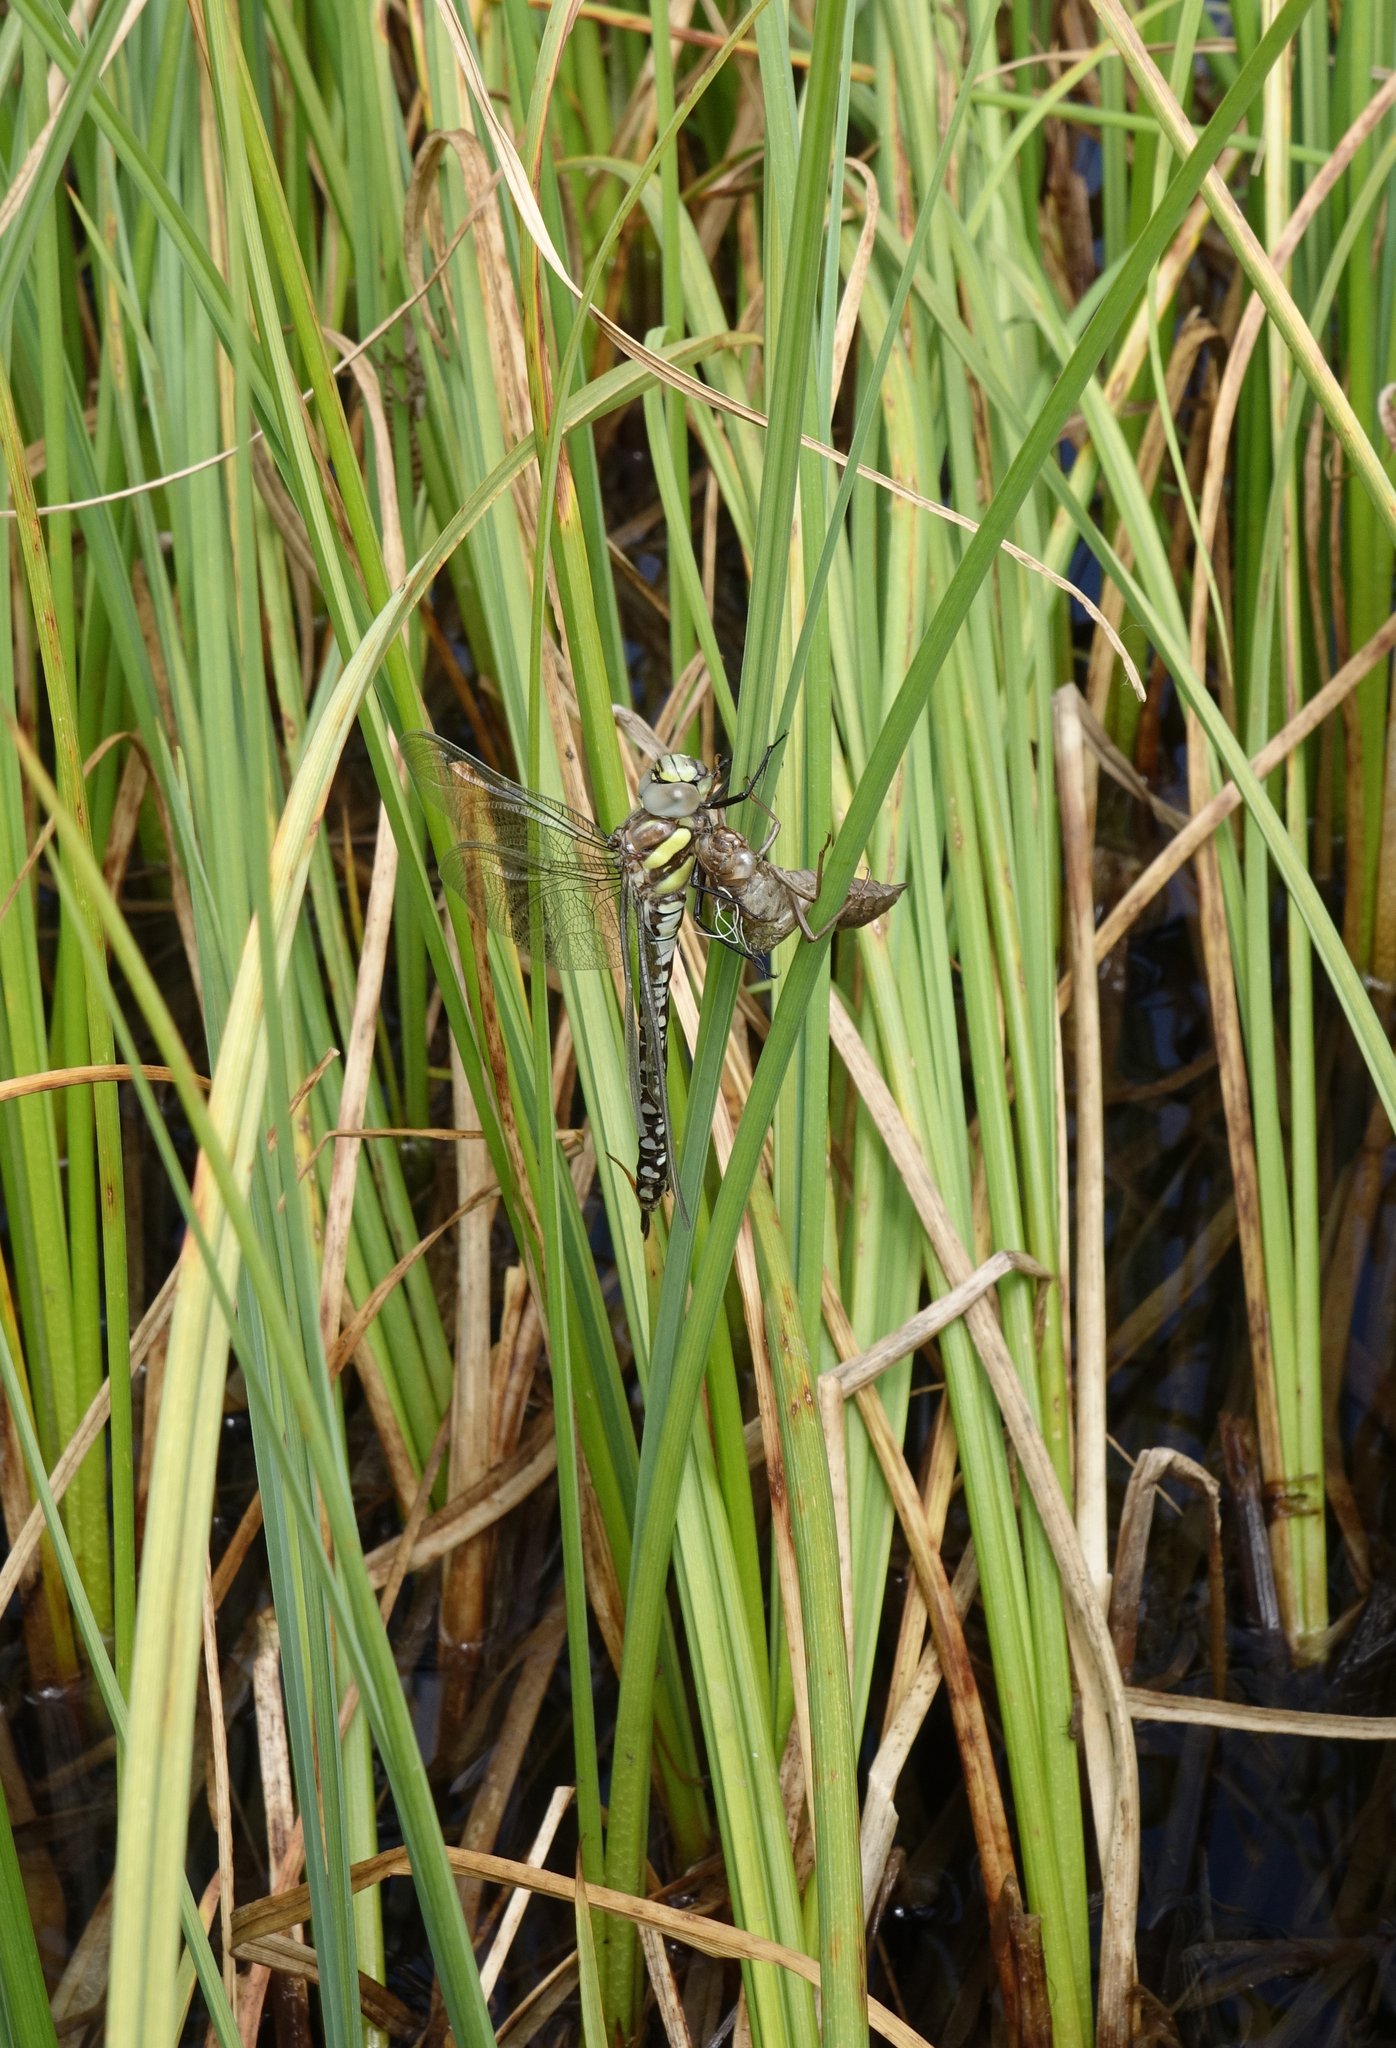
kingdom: Animalia
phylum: Arthropoda
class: Insecta
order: Odonata
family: Aeshnidae
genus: Aeshna
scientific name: Aeshna juncea
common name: Moorland hawker
